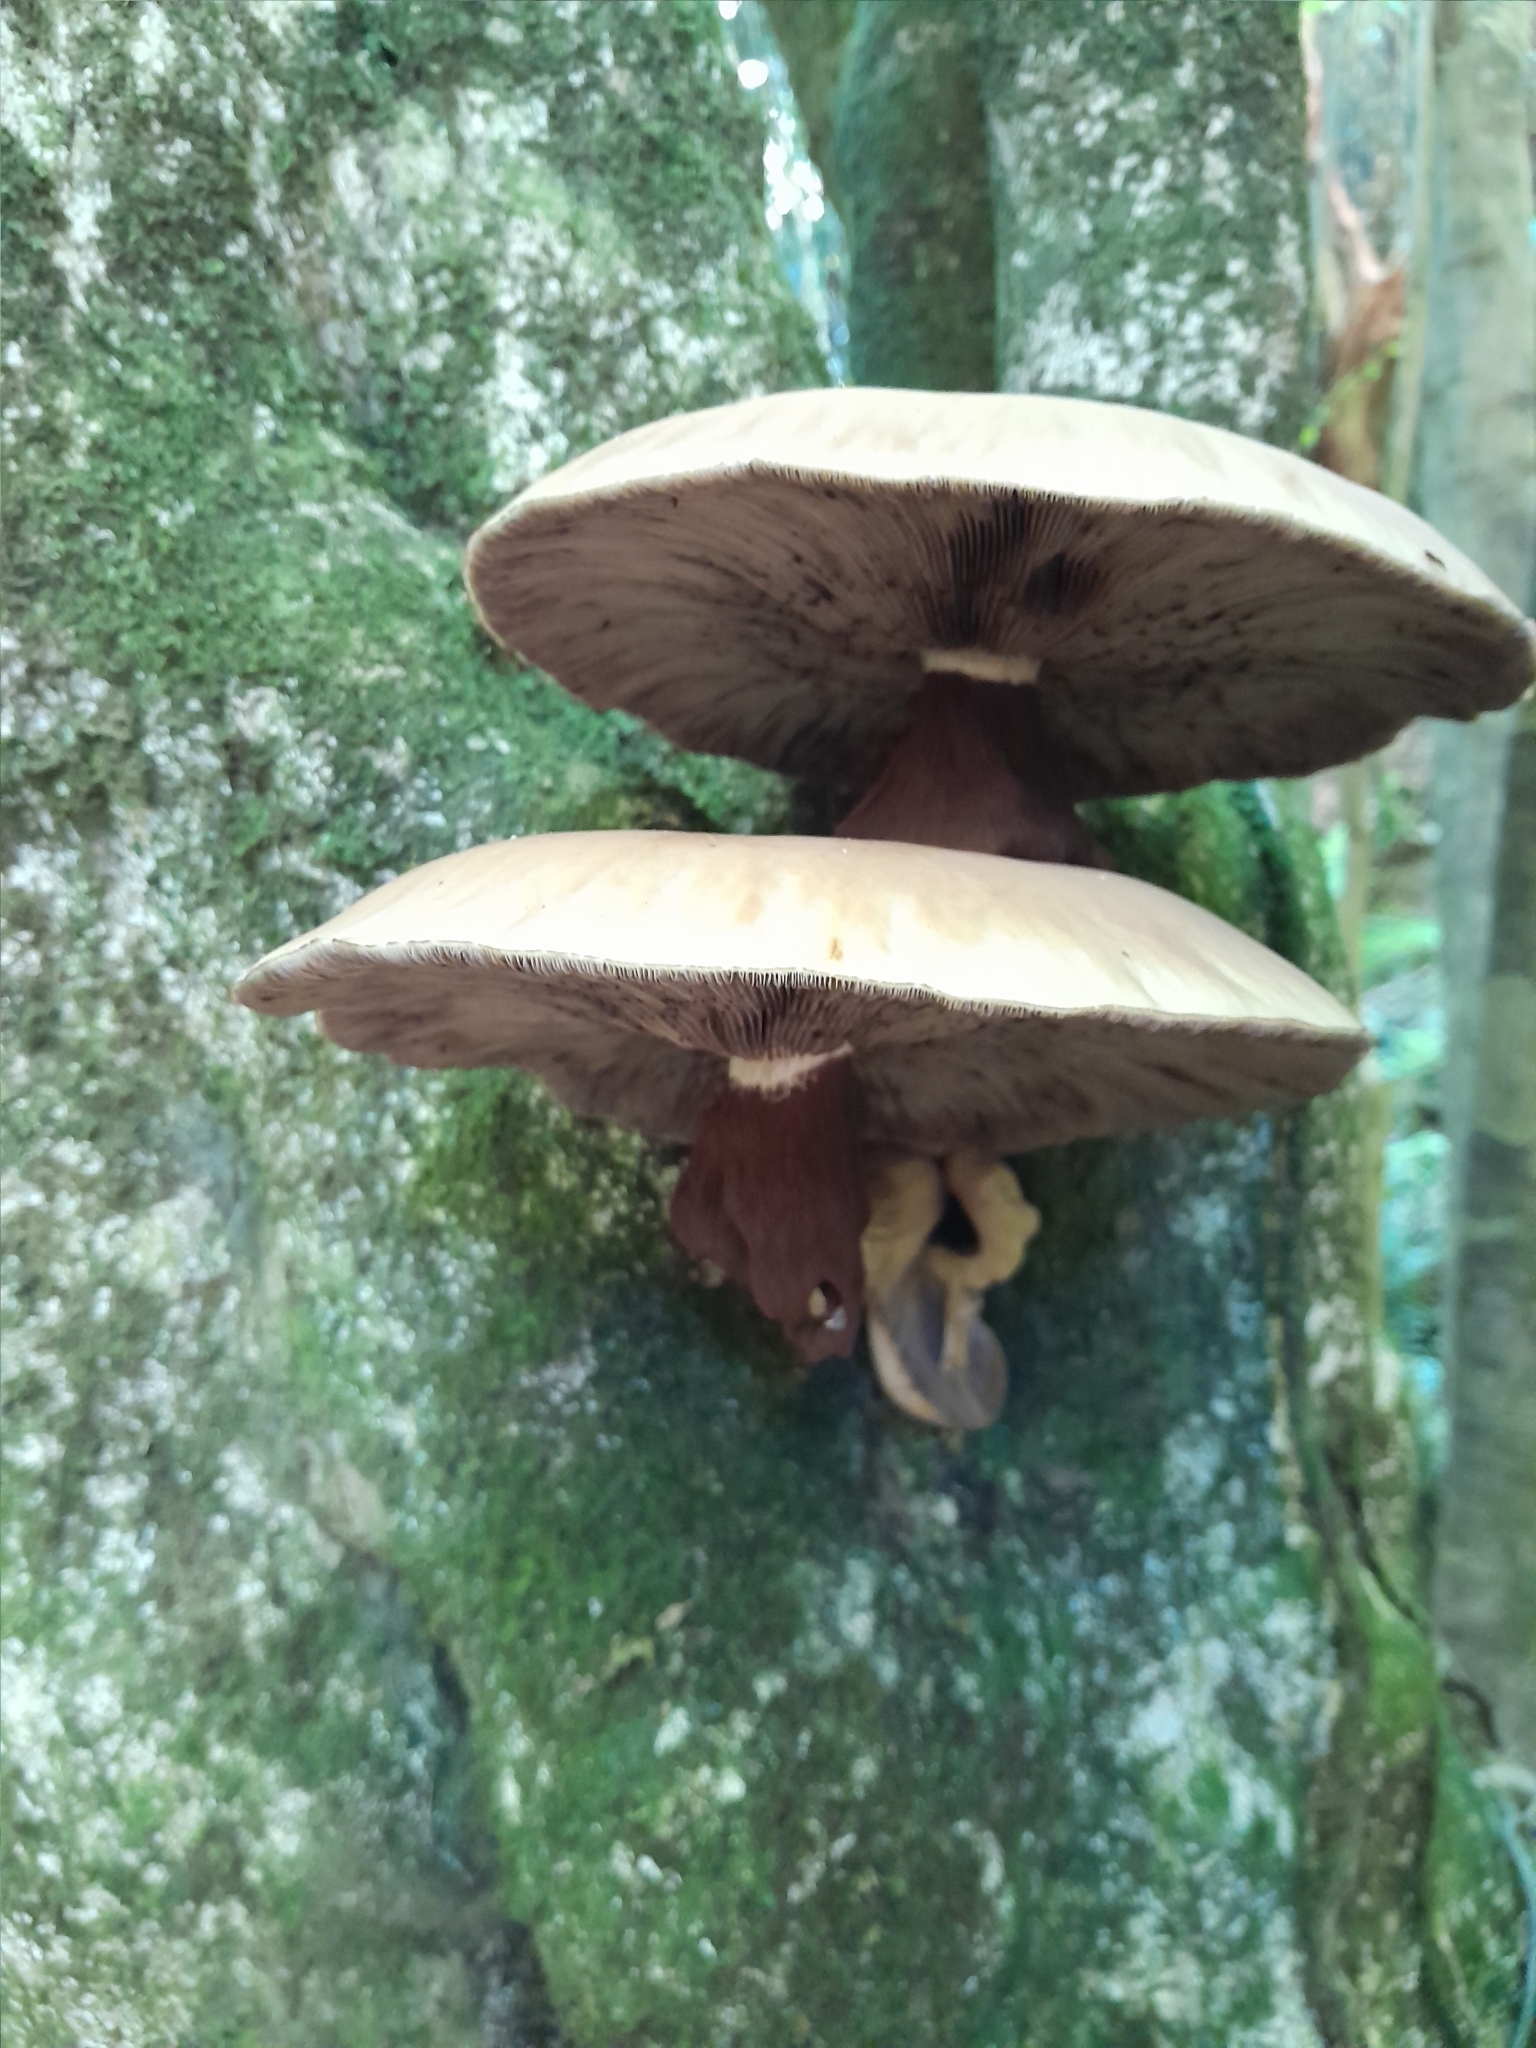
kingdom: Fungi
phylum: Basidiomycota
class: Agaricomycetes
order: Agaricales
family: Tubariaceae
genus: Cyclocybe
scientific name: Cyclocybe parasitica
